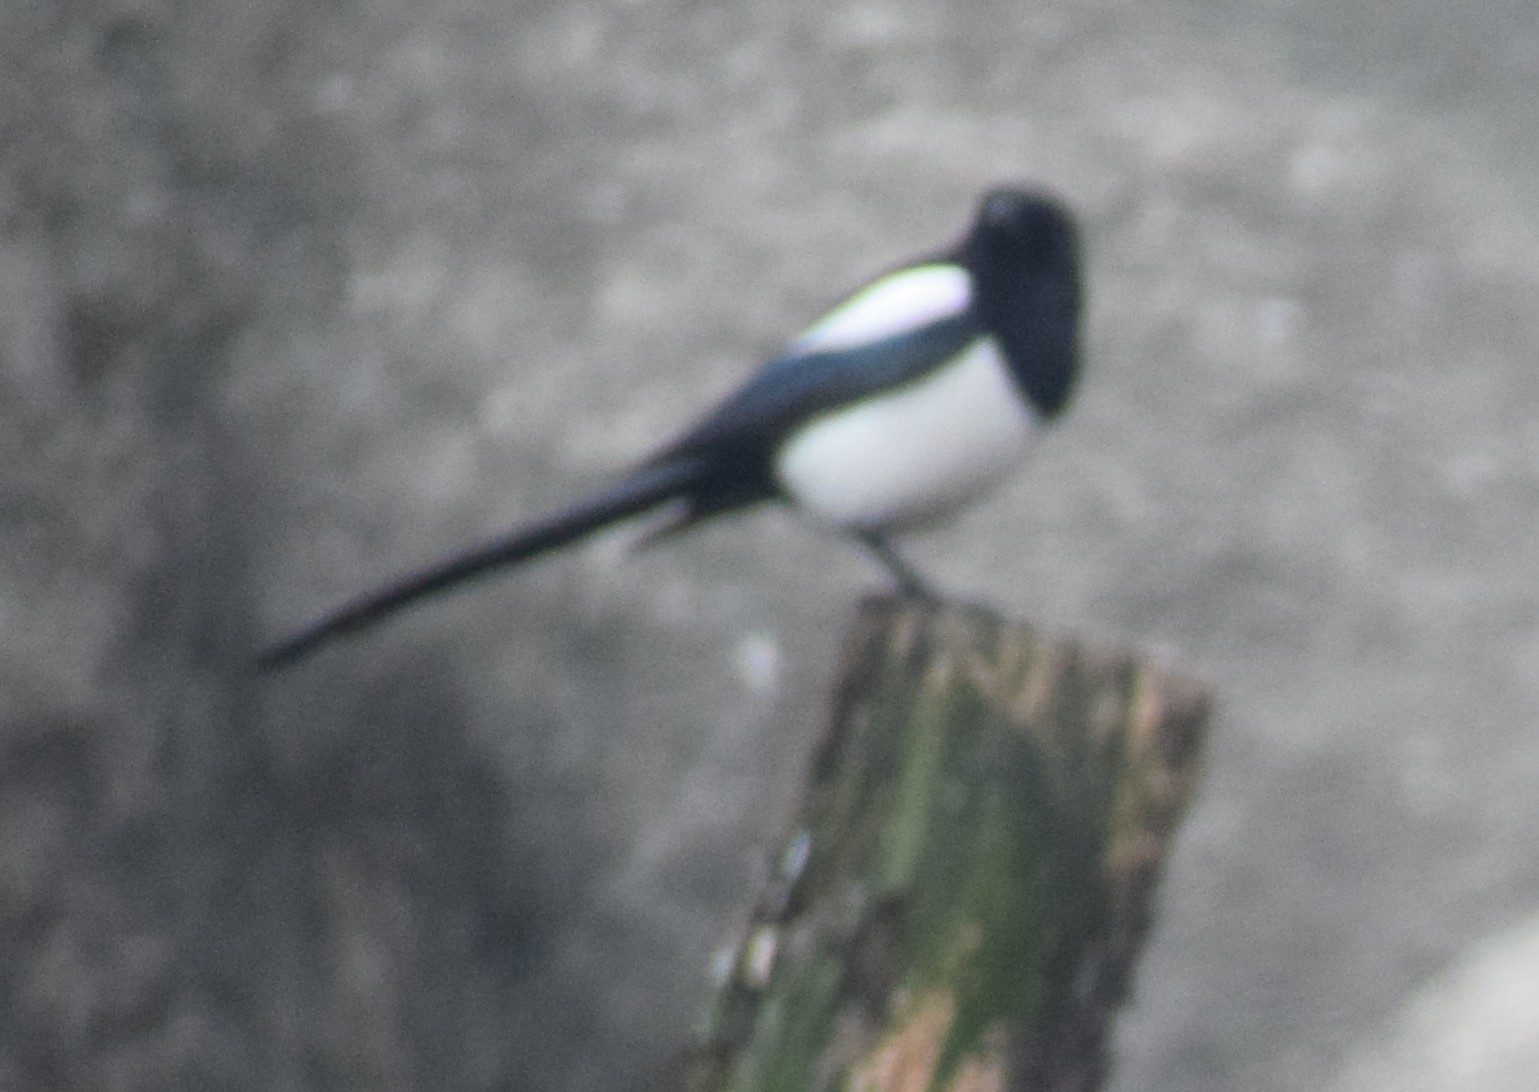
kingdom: Animalia
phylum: Chordata
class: Aves
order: Passeriformes
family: Corvidae
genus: Pica
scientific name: Pica pica
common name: Eurasian magpie
